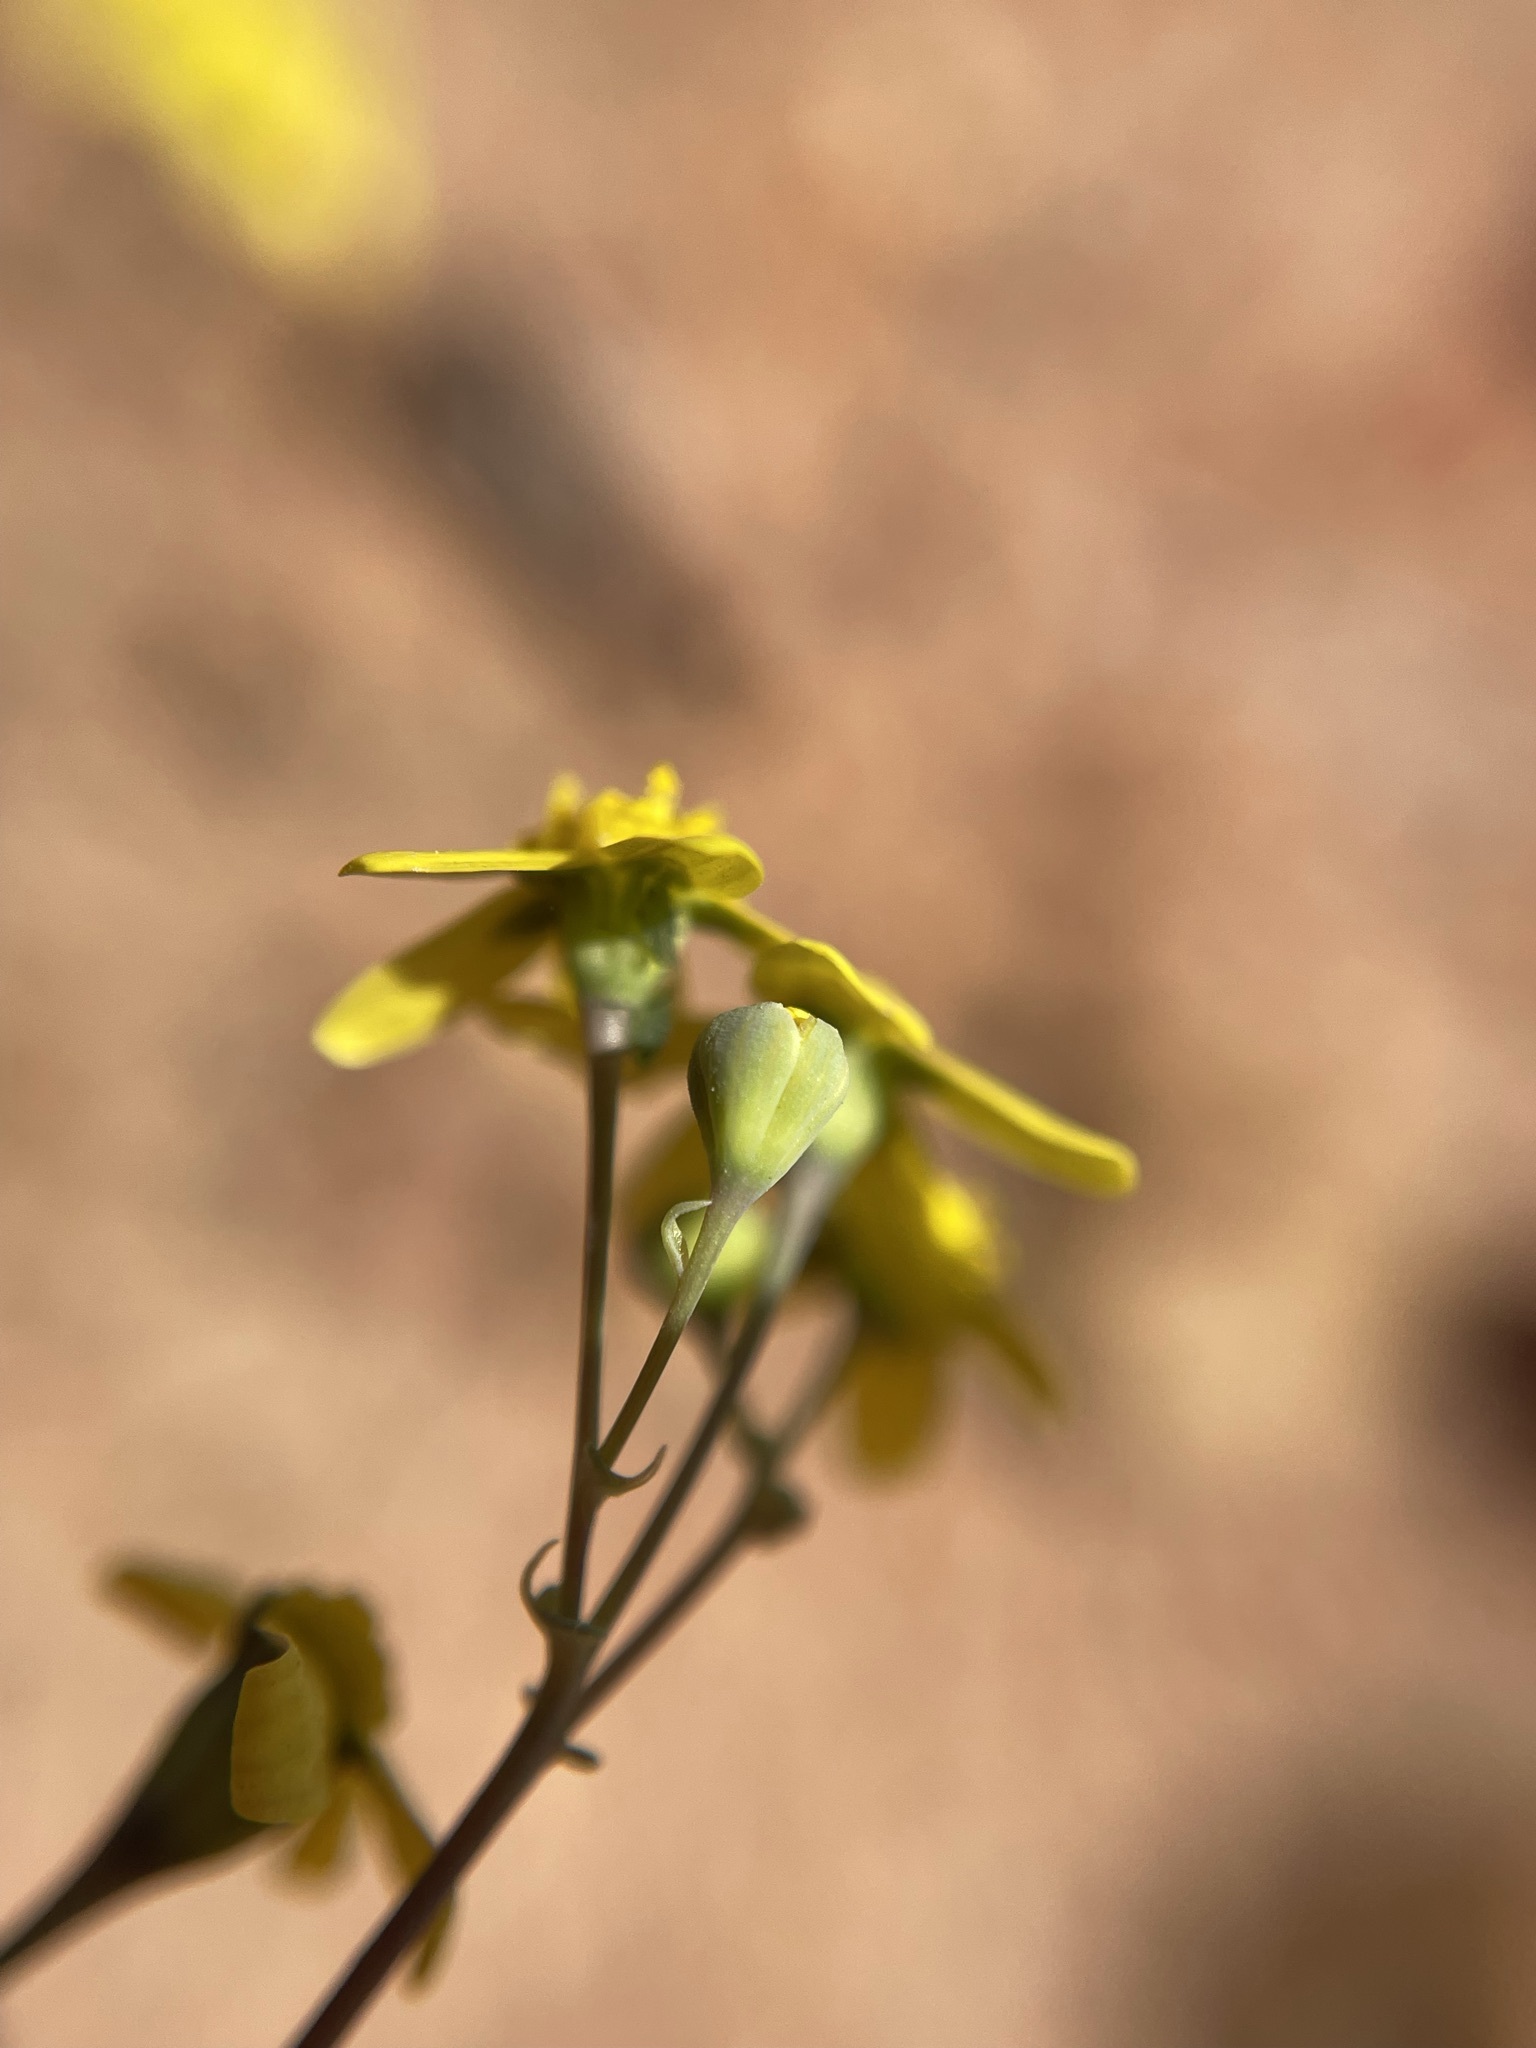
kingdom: Plantae
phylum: Tracheophyta
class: Magnoliopsida
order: Asterales
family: Asteraceae
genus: Gymnodiscus
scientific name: Gymnodiscus capillaris
